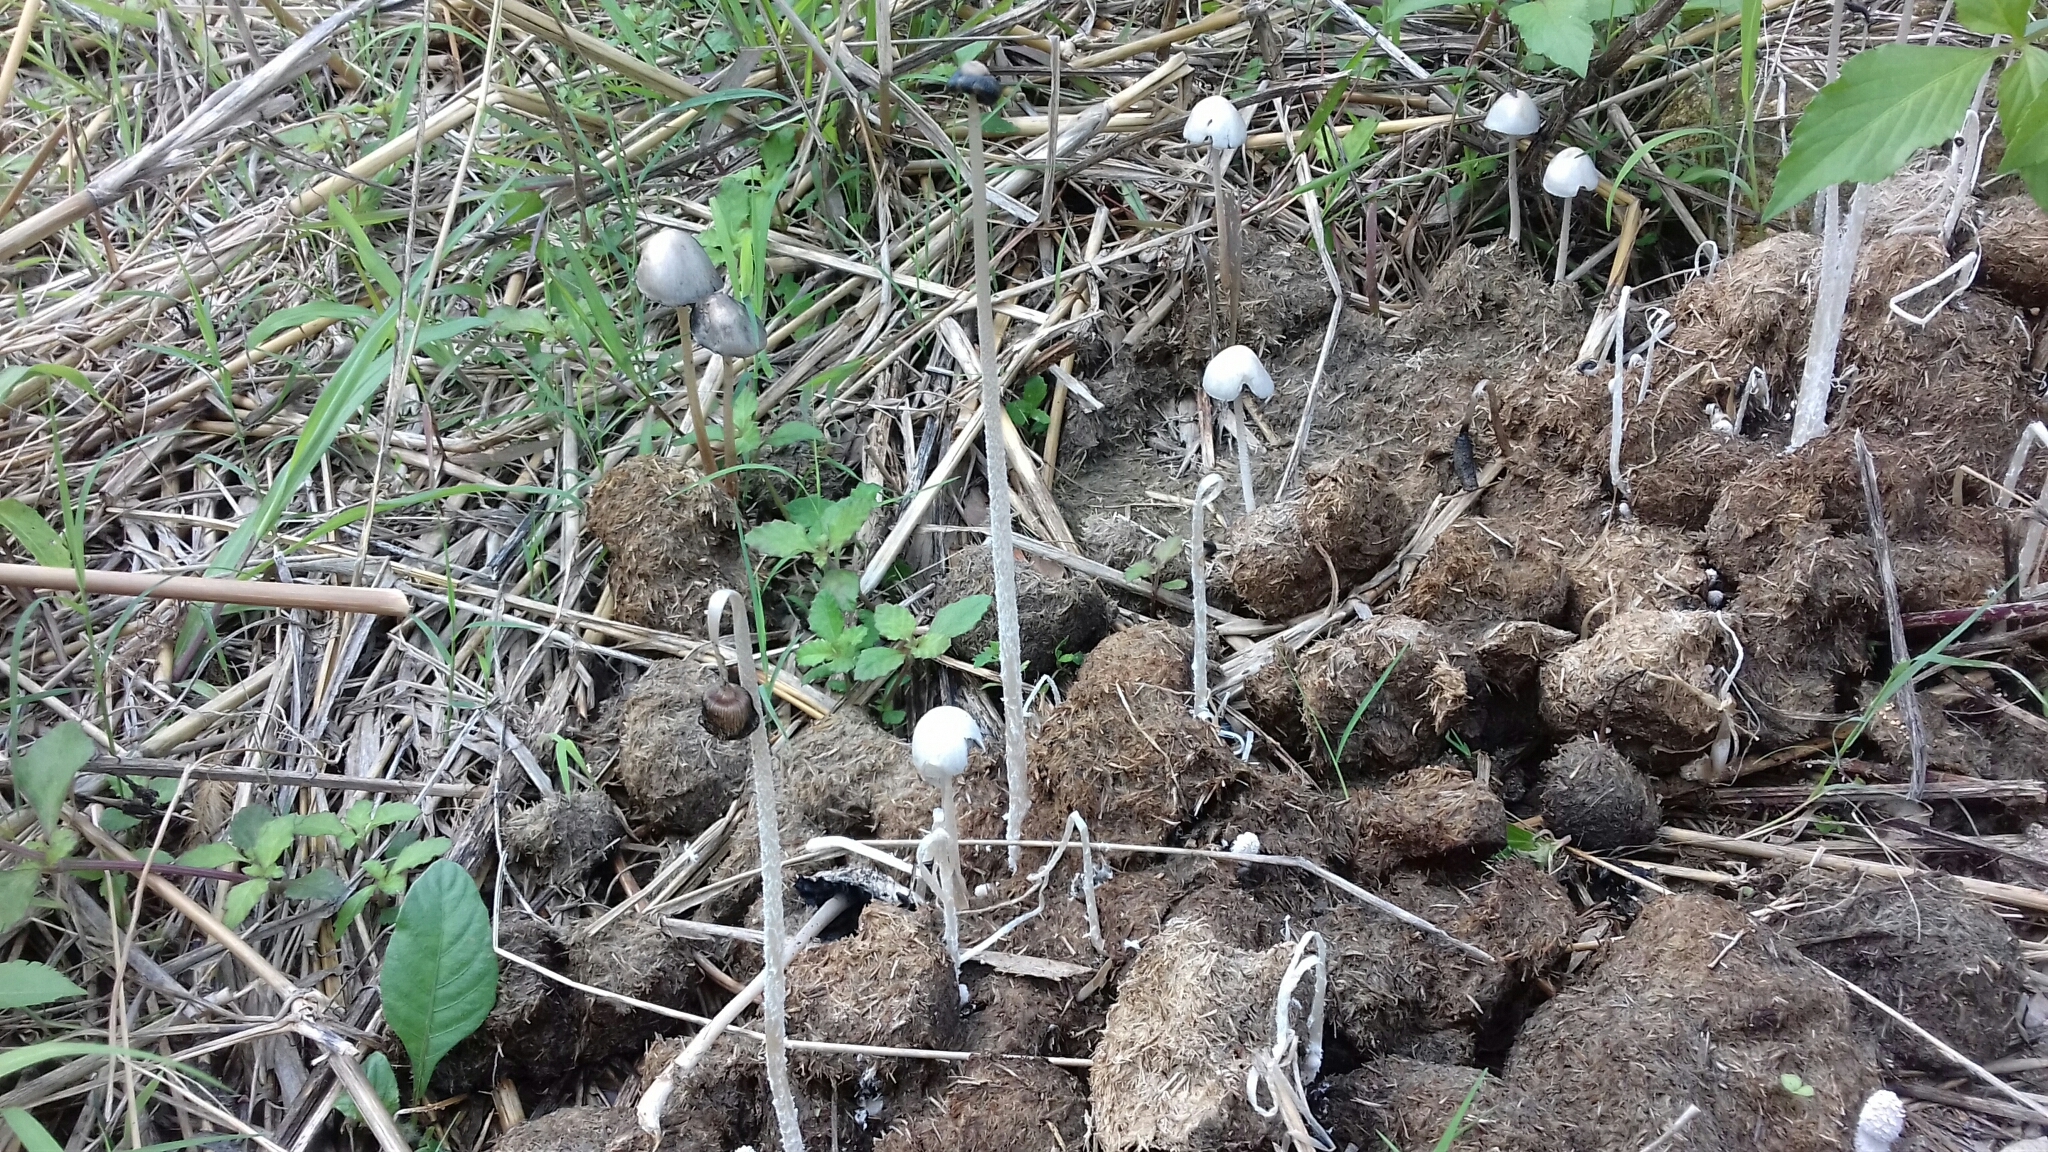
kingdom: Fungi
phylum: Basidiomycota
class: Agaricomycetes
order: Agaricales
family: Bolbitiaceae
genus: Panaeolus
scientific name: Panaeolus antillarum
